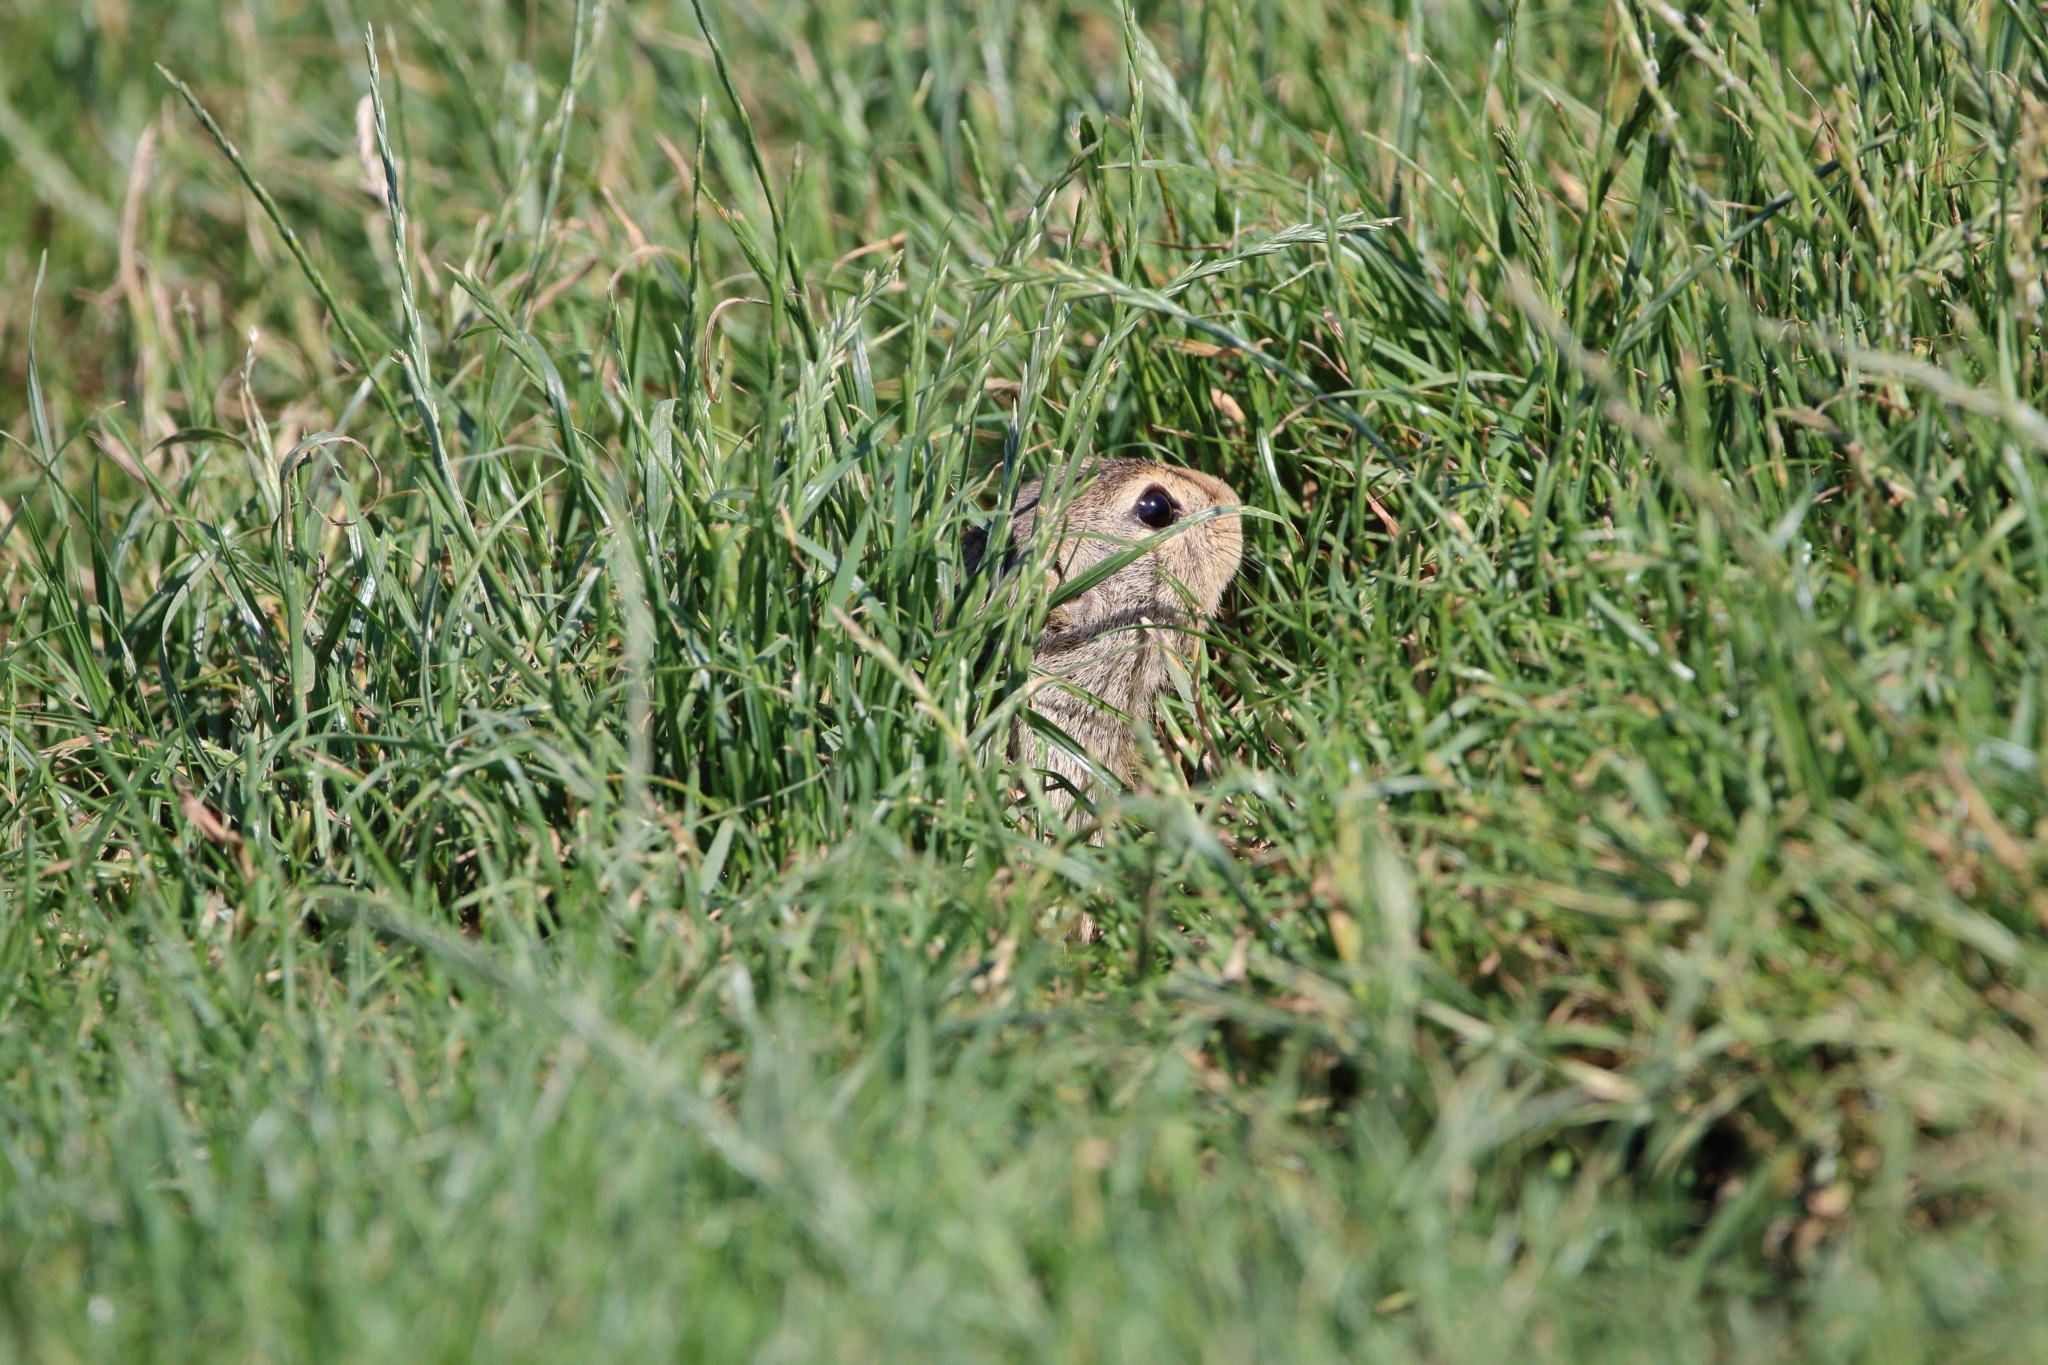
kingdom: Animalia
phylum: Chordata
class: Mammalia
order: Rodentia
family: Sciuridae
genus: Spermophilus
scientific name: Spermophilus citellus
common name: European ground squirrel
